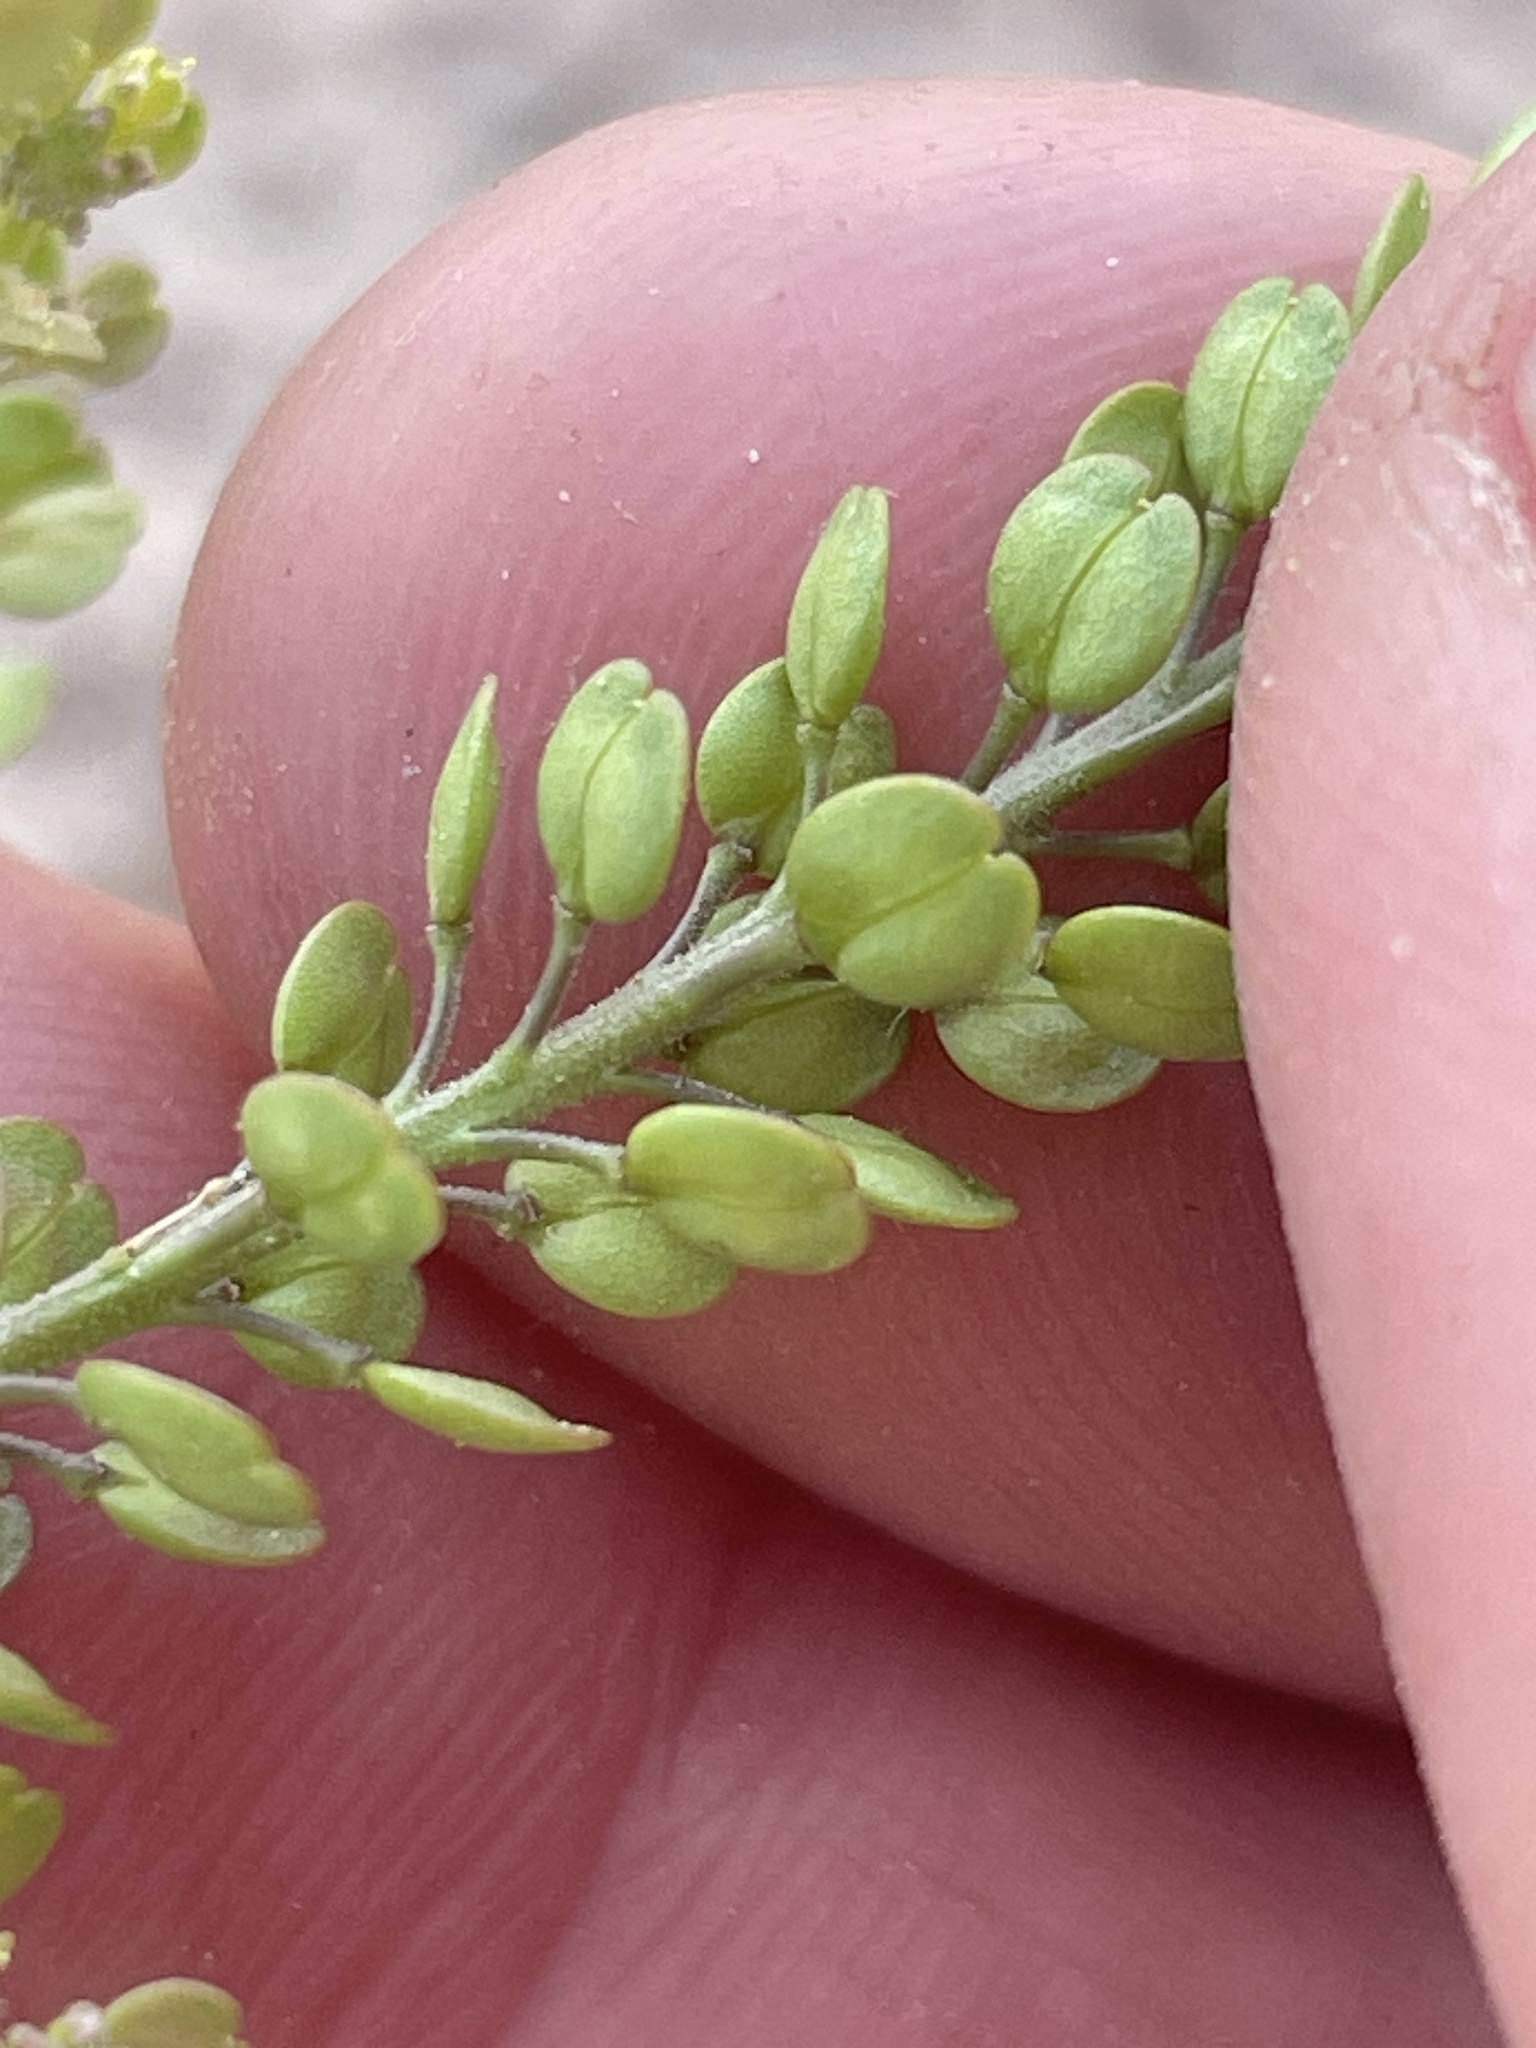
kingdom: Plantae
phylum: Tracheophyta
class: Magnoliopsida
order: Brassicales
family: Brassicaceae
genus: Lepidium
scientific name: Lepidium densiflorum
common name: Miner's pepperwort
